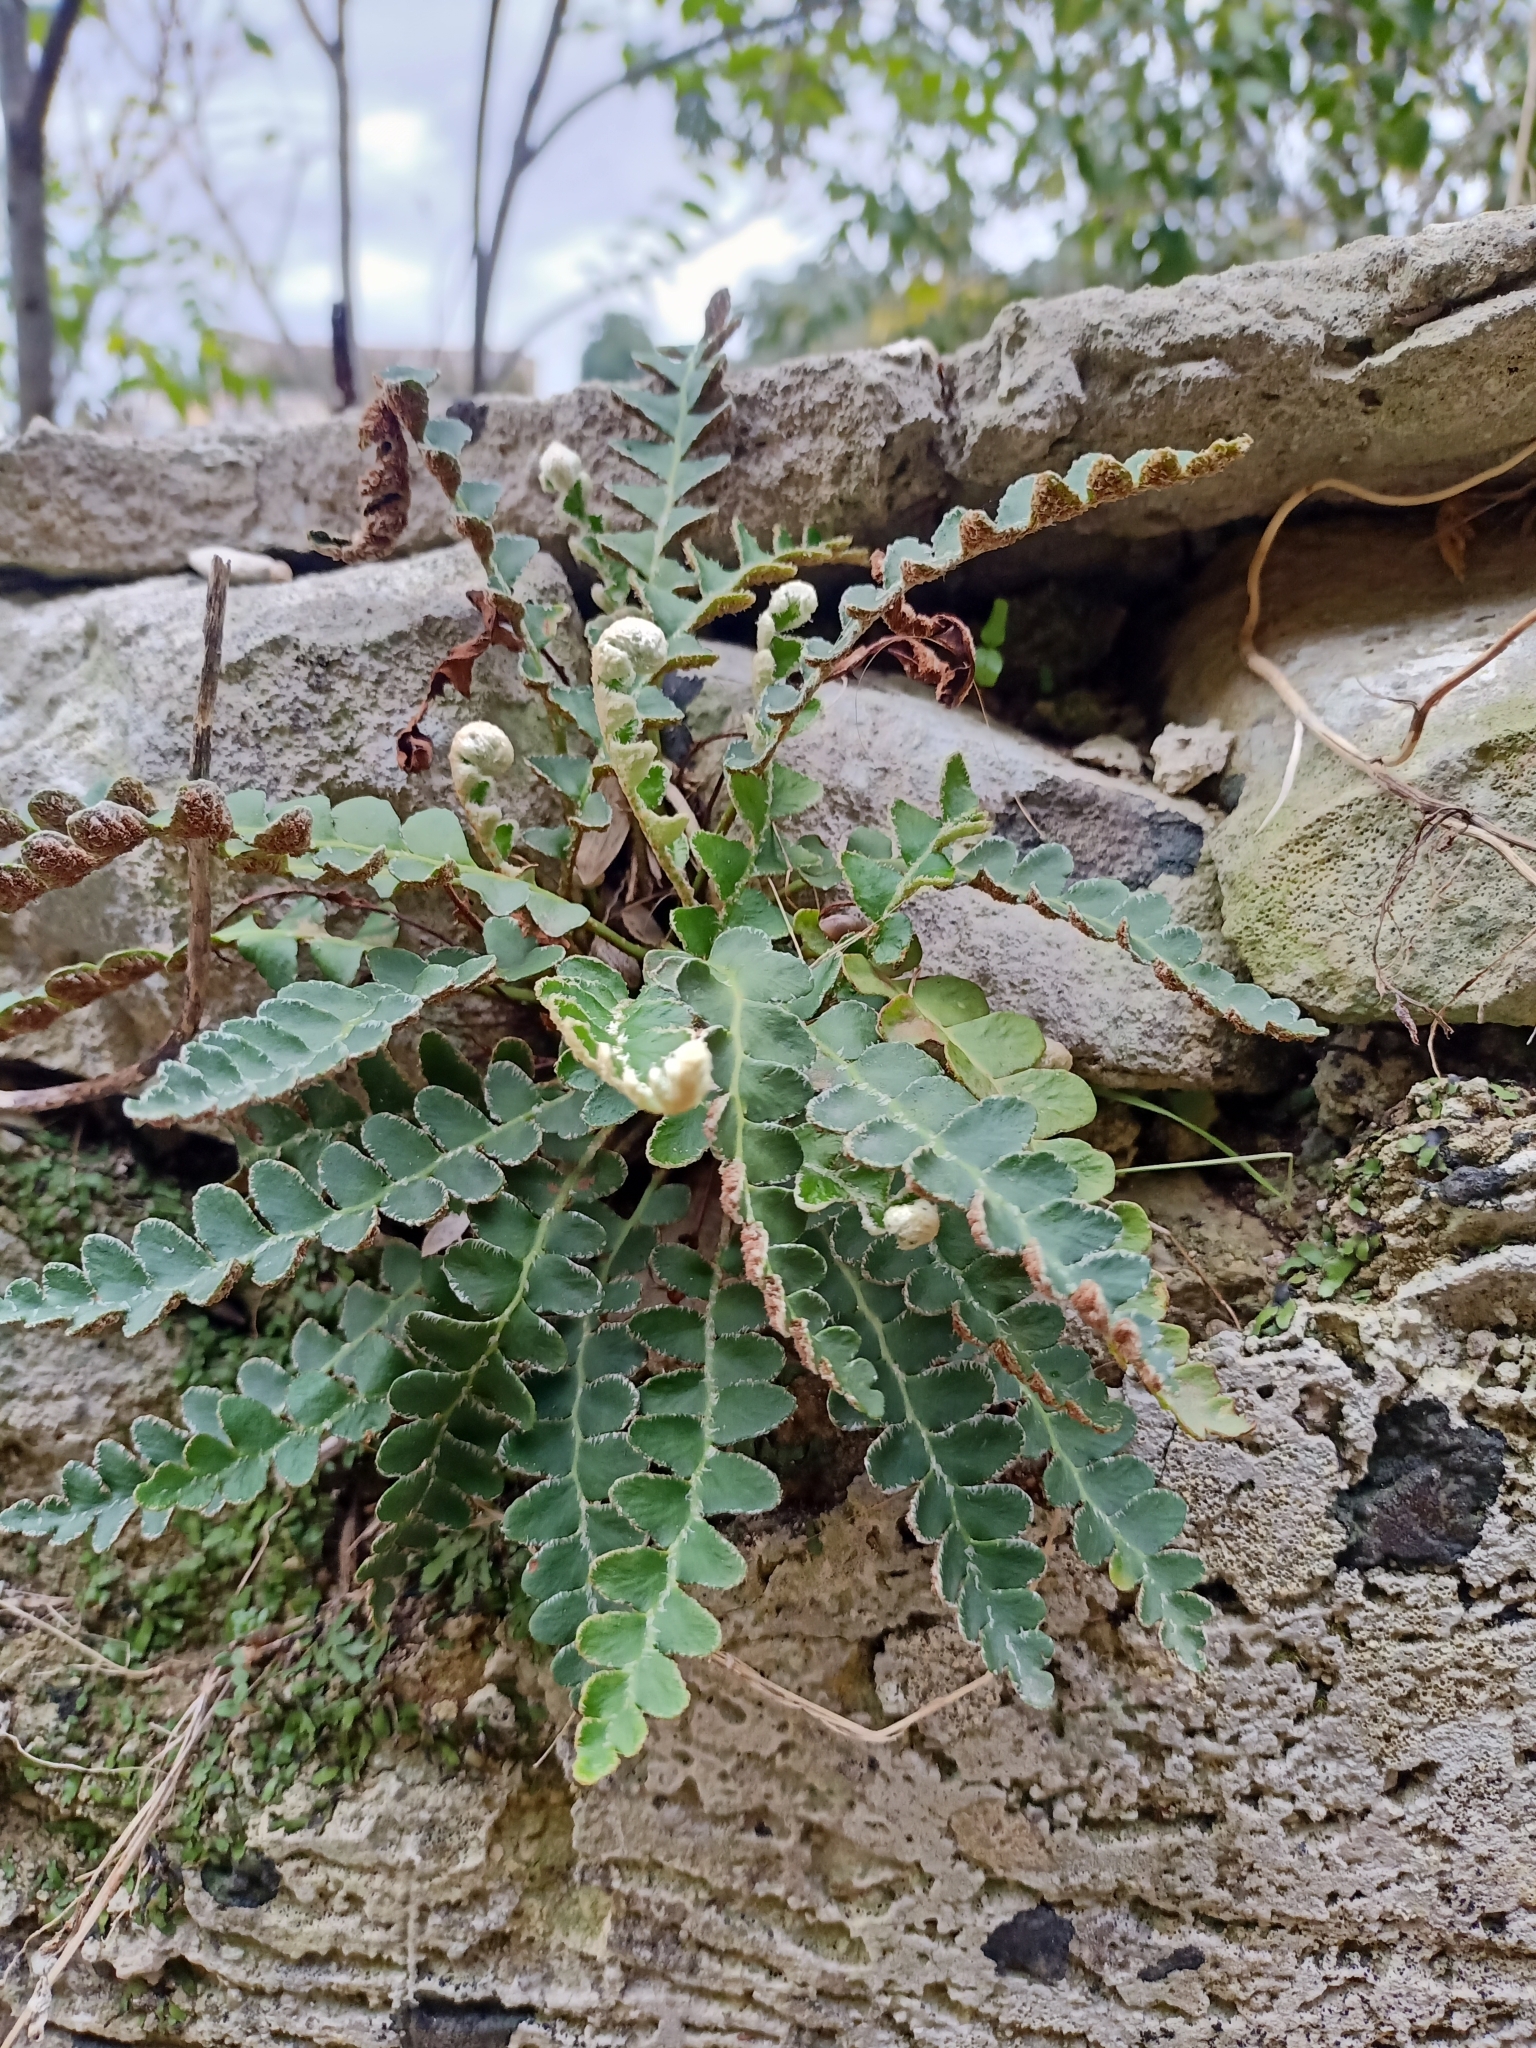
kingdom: Plantae
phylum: Tracheophyta
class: Polypodiopsida
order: Polypodiales
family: Aspleniaceae
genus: Asplenium
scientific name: Asplenium ceterach
